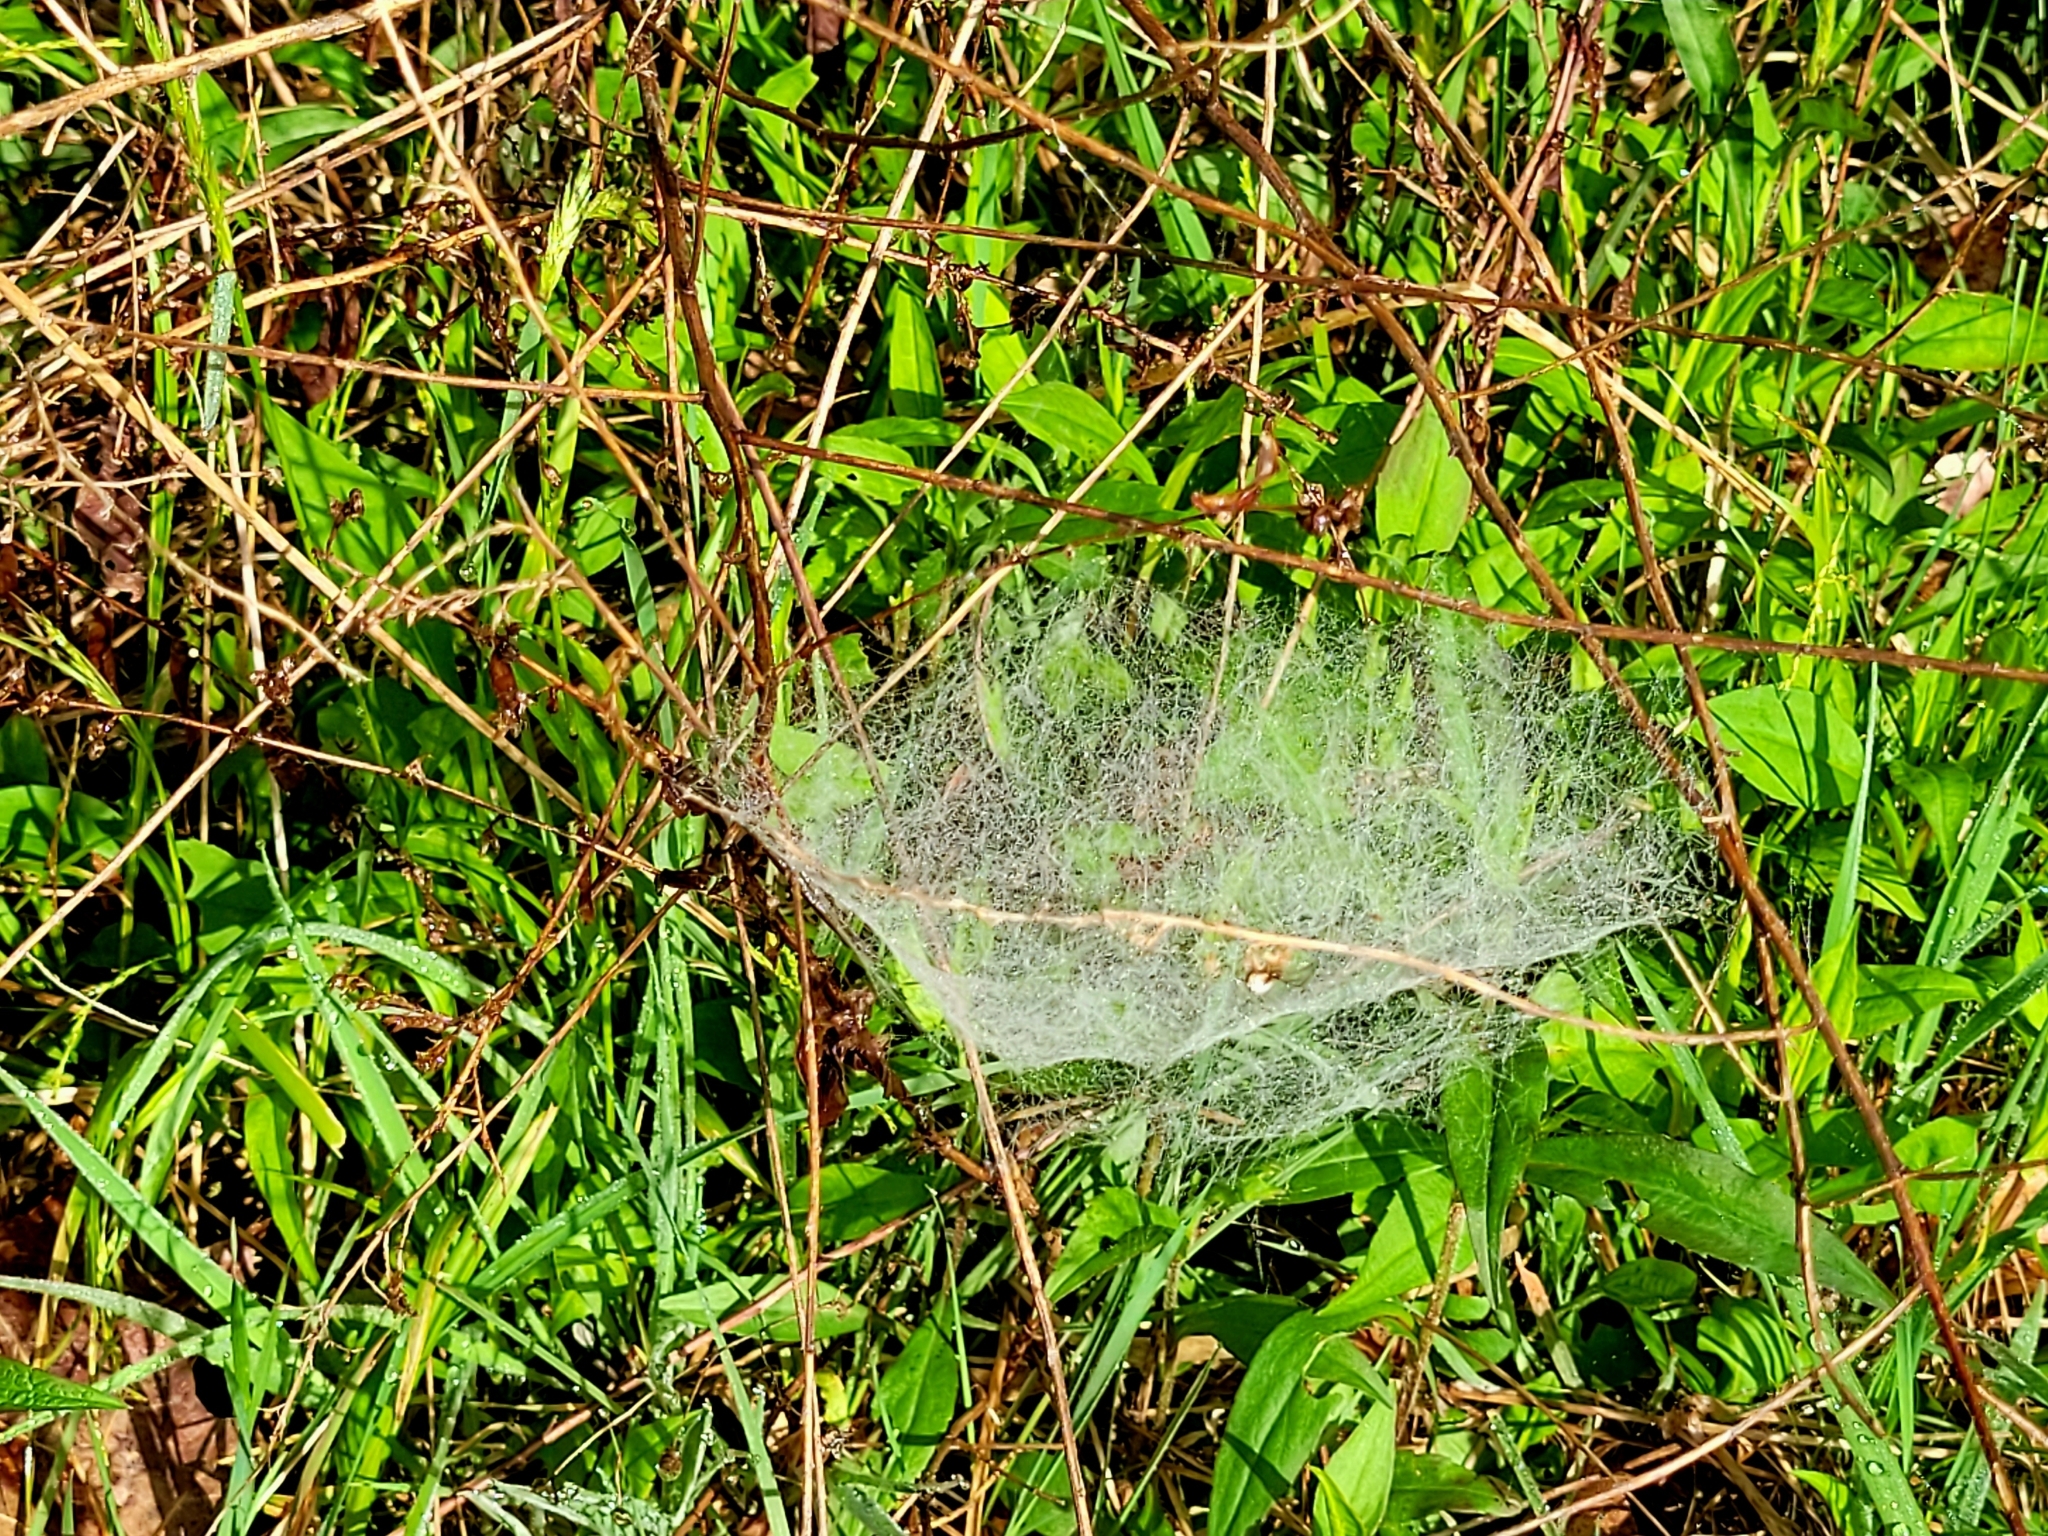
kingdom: Animalia
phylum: Arthropoda
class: Arachnida
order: Araneae
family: Linyphiidae
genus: Frontinella
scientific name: Frontinella pyramitela
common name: Bowl-and-doily spider
